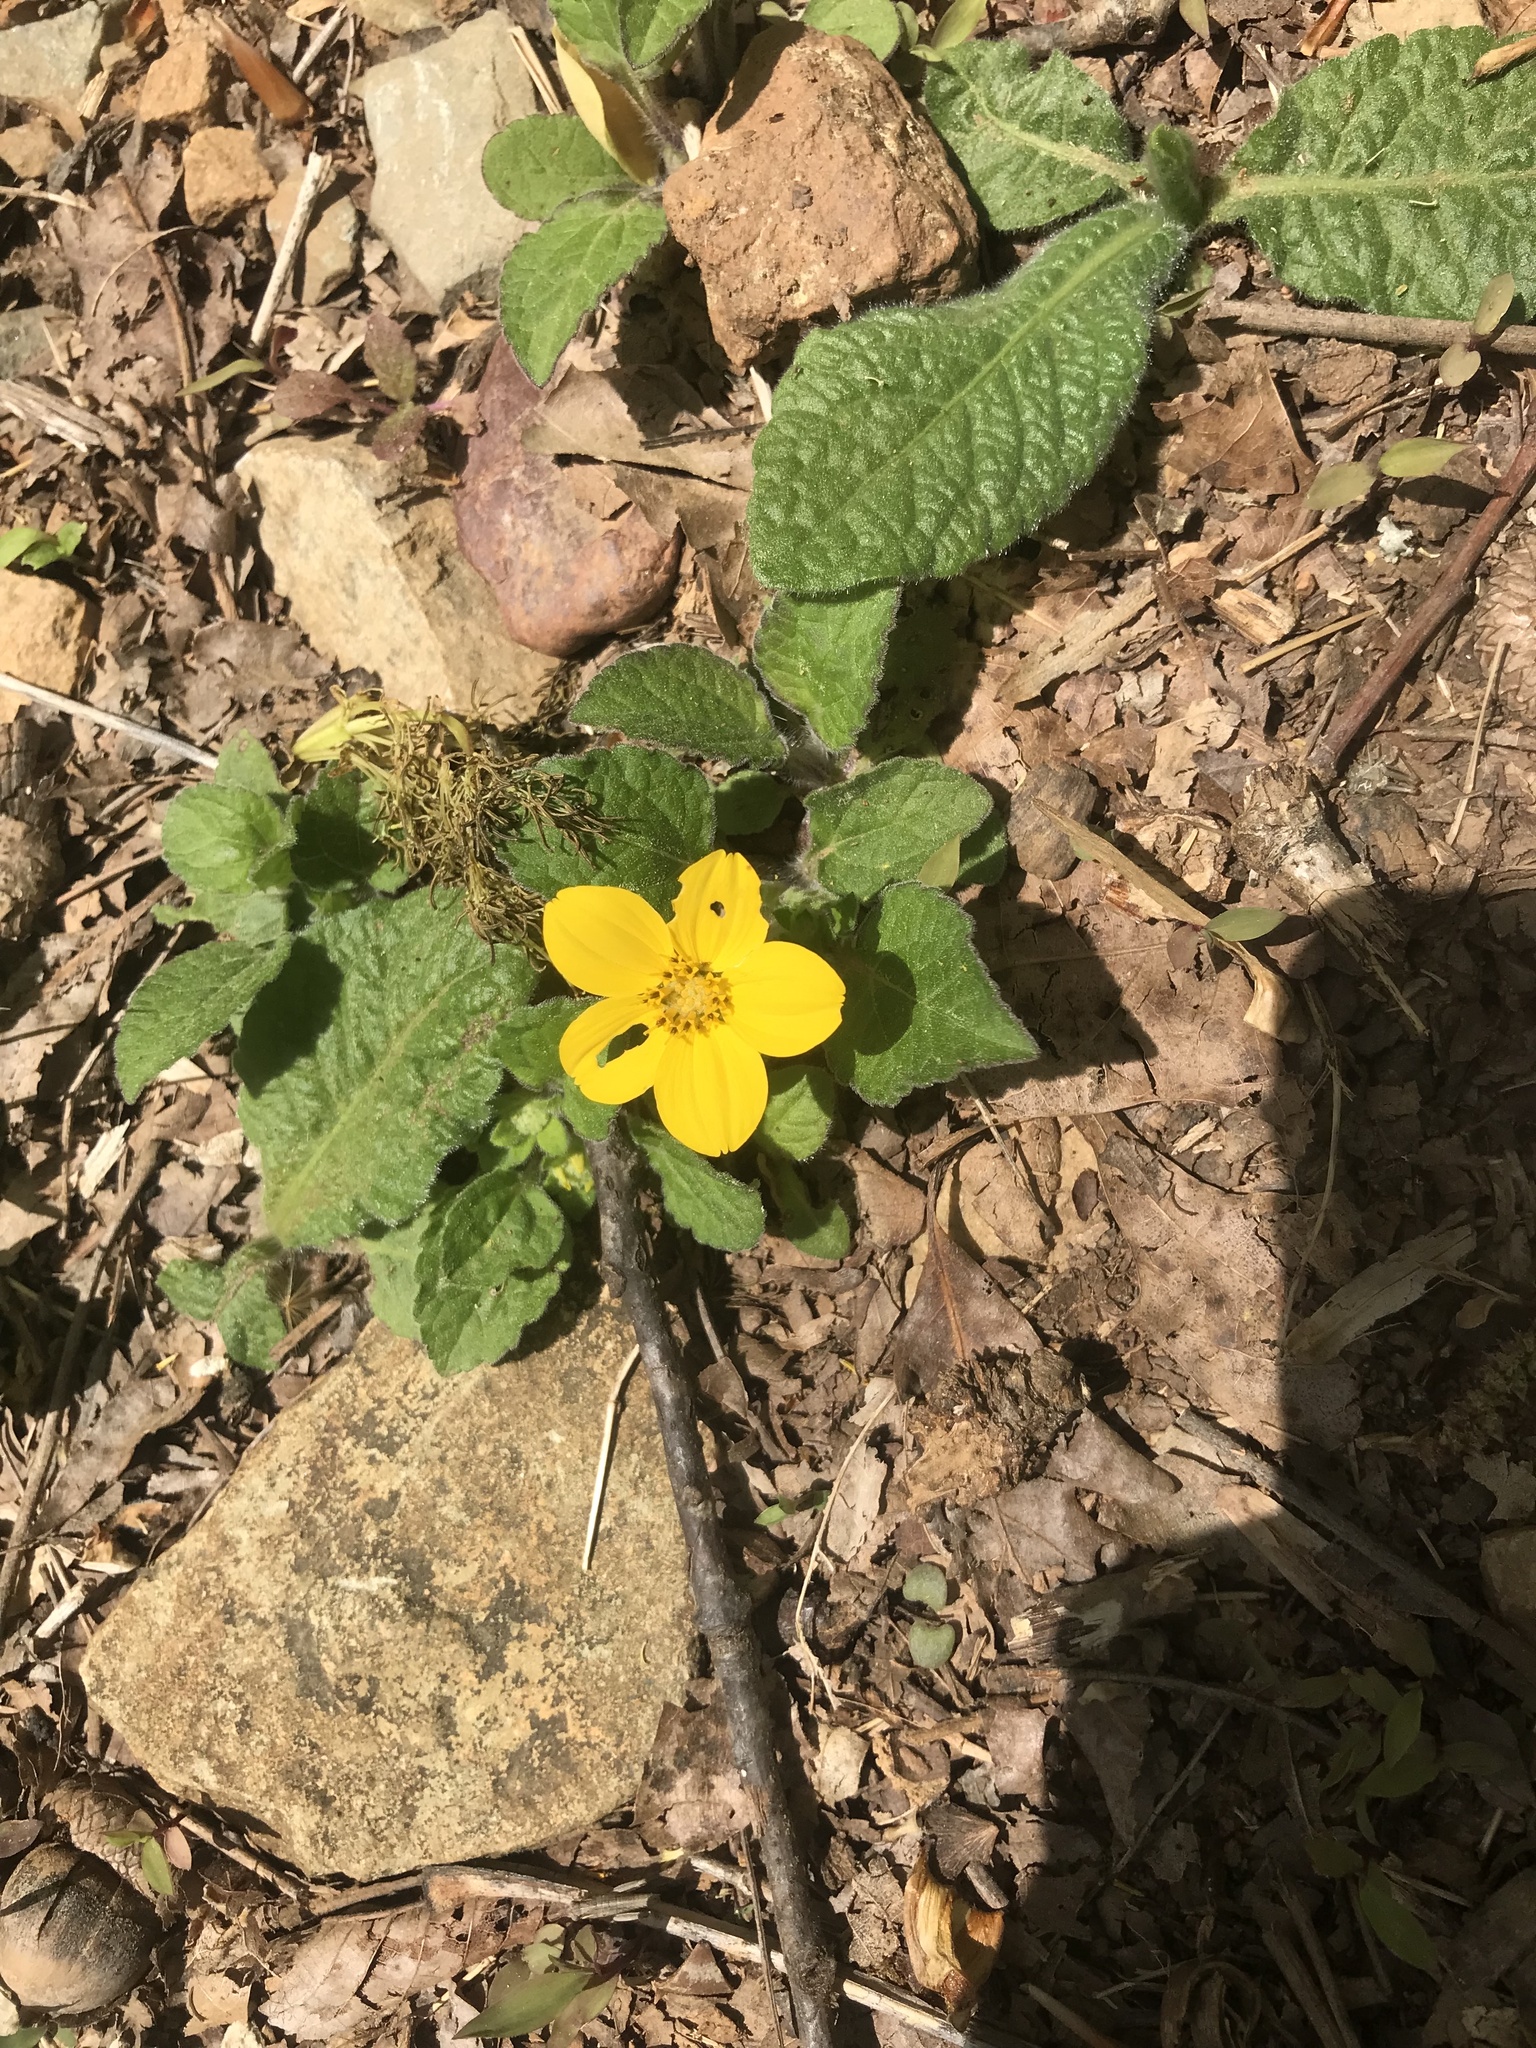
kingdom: Plantae
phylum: Tracheophyta
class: Magnoliopsida
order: Asterales
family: Asteraceae
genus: Chrysogonum
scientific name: Chrysogonum virginianum
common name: Golden-knee
